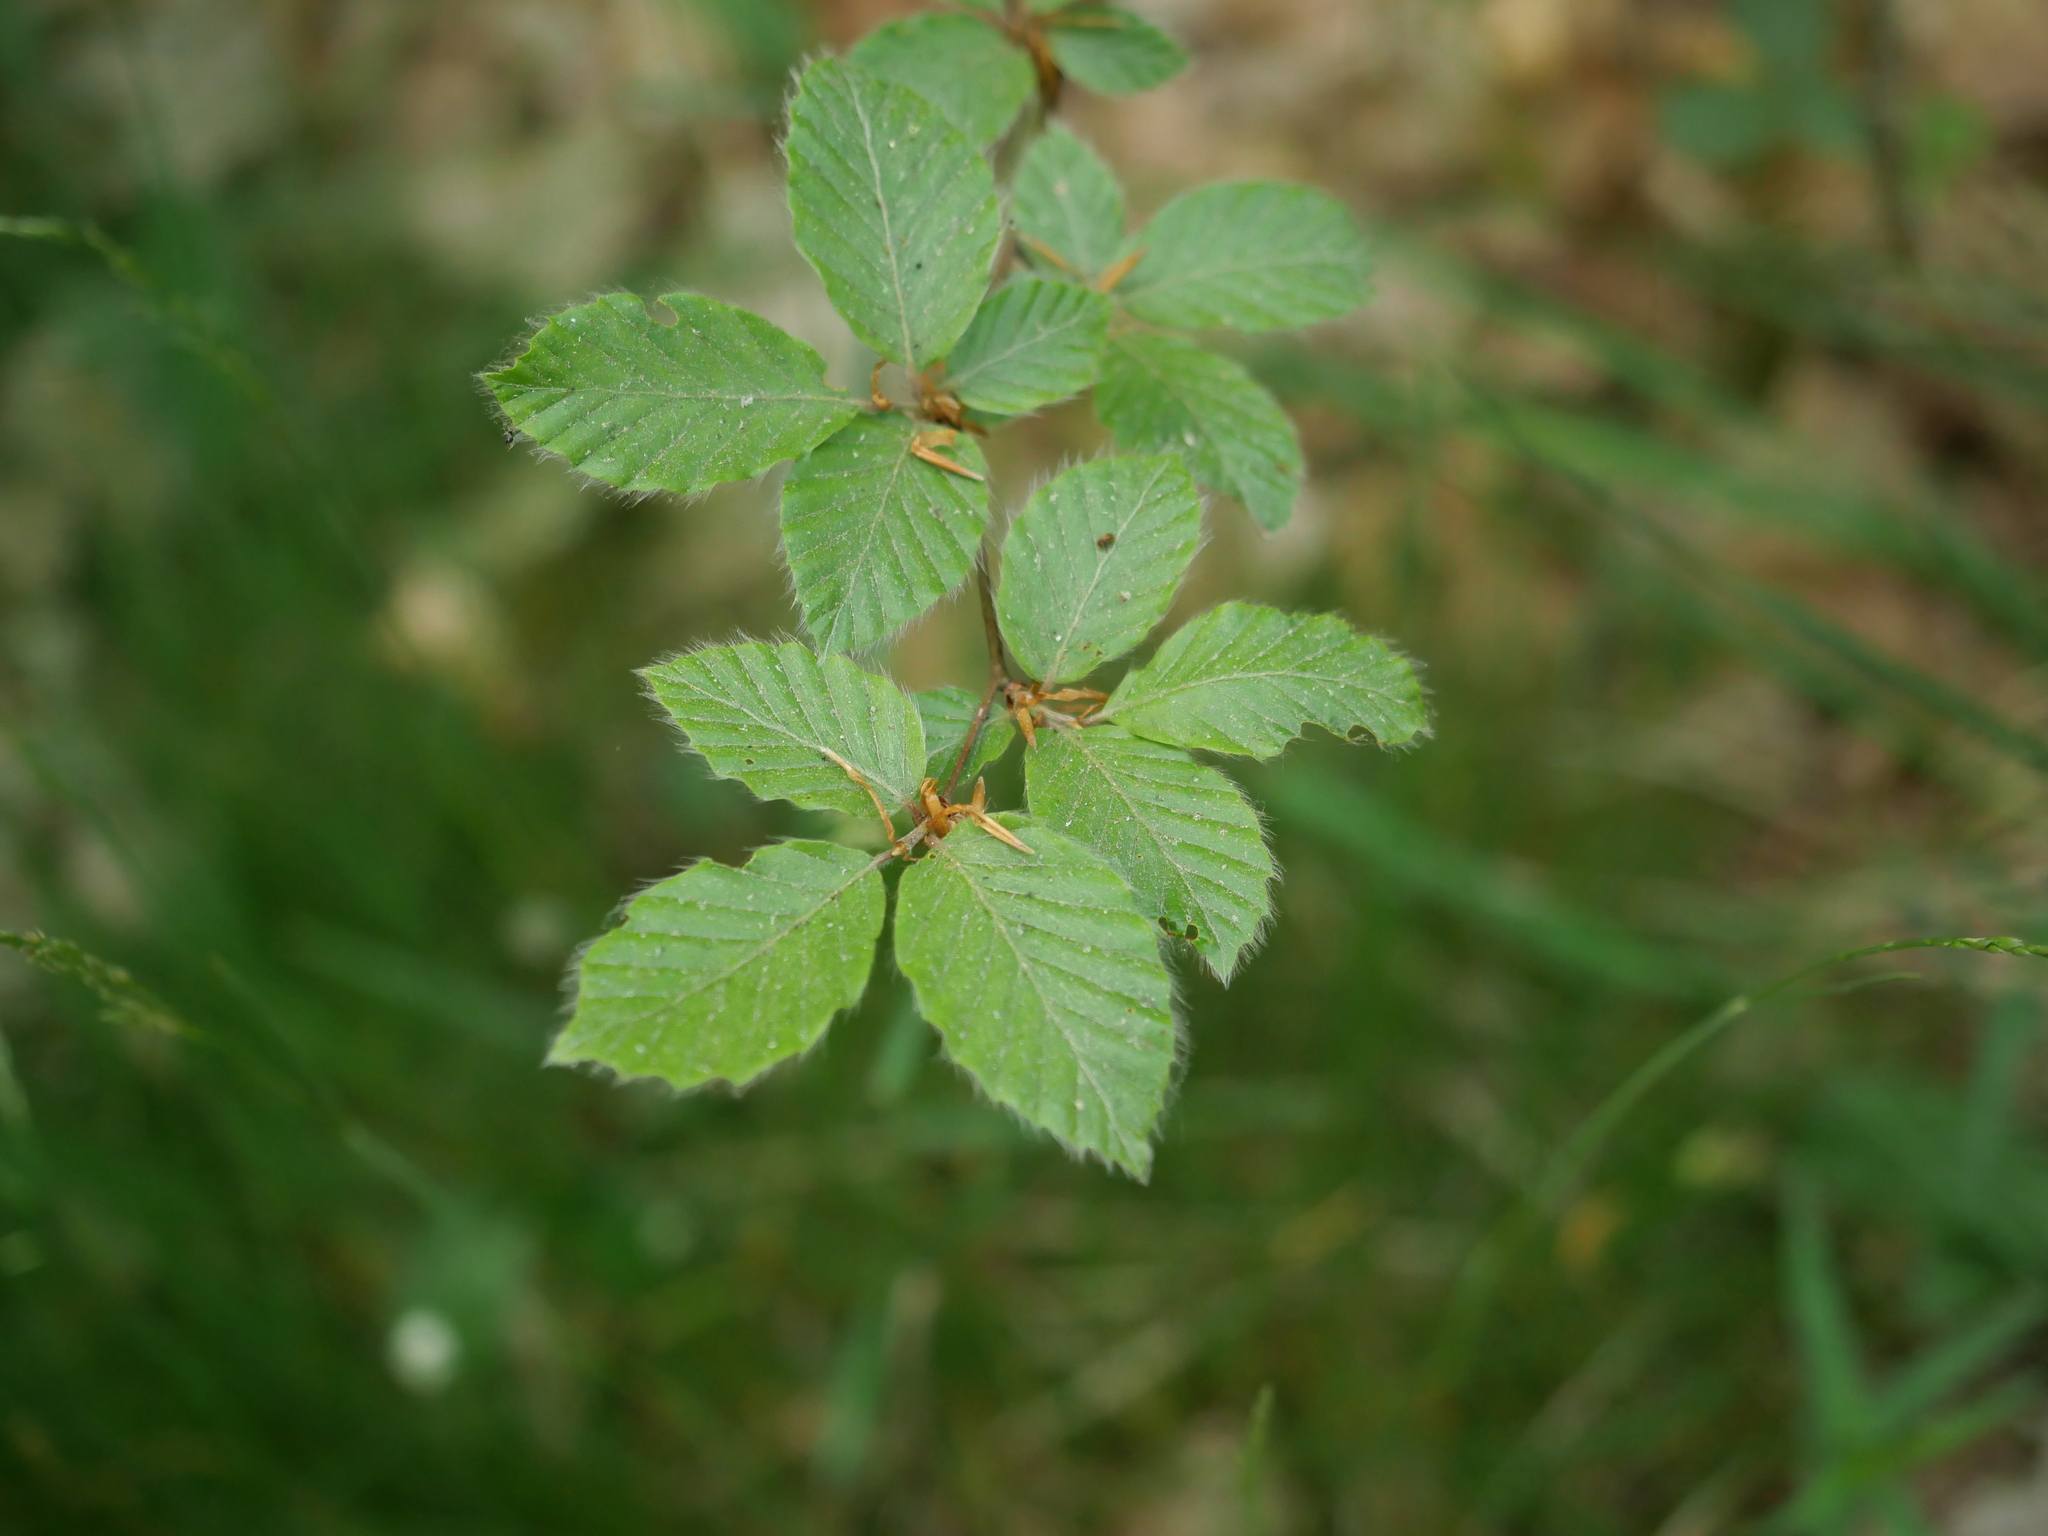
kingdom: Plantae
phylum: Tracheophyta
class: Magnoliopsida
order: Fagales
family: Fagaceae
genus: Fagus
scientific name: Fagus sylvatica
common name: Beech
